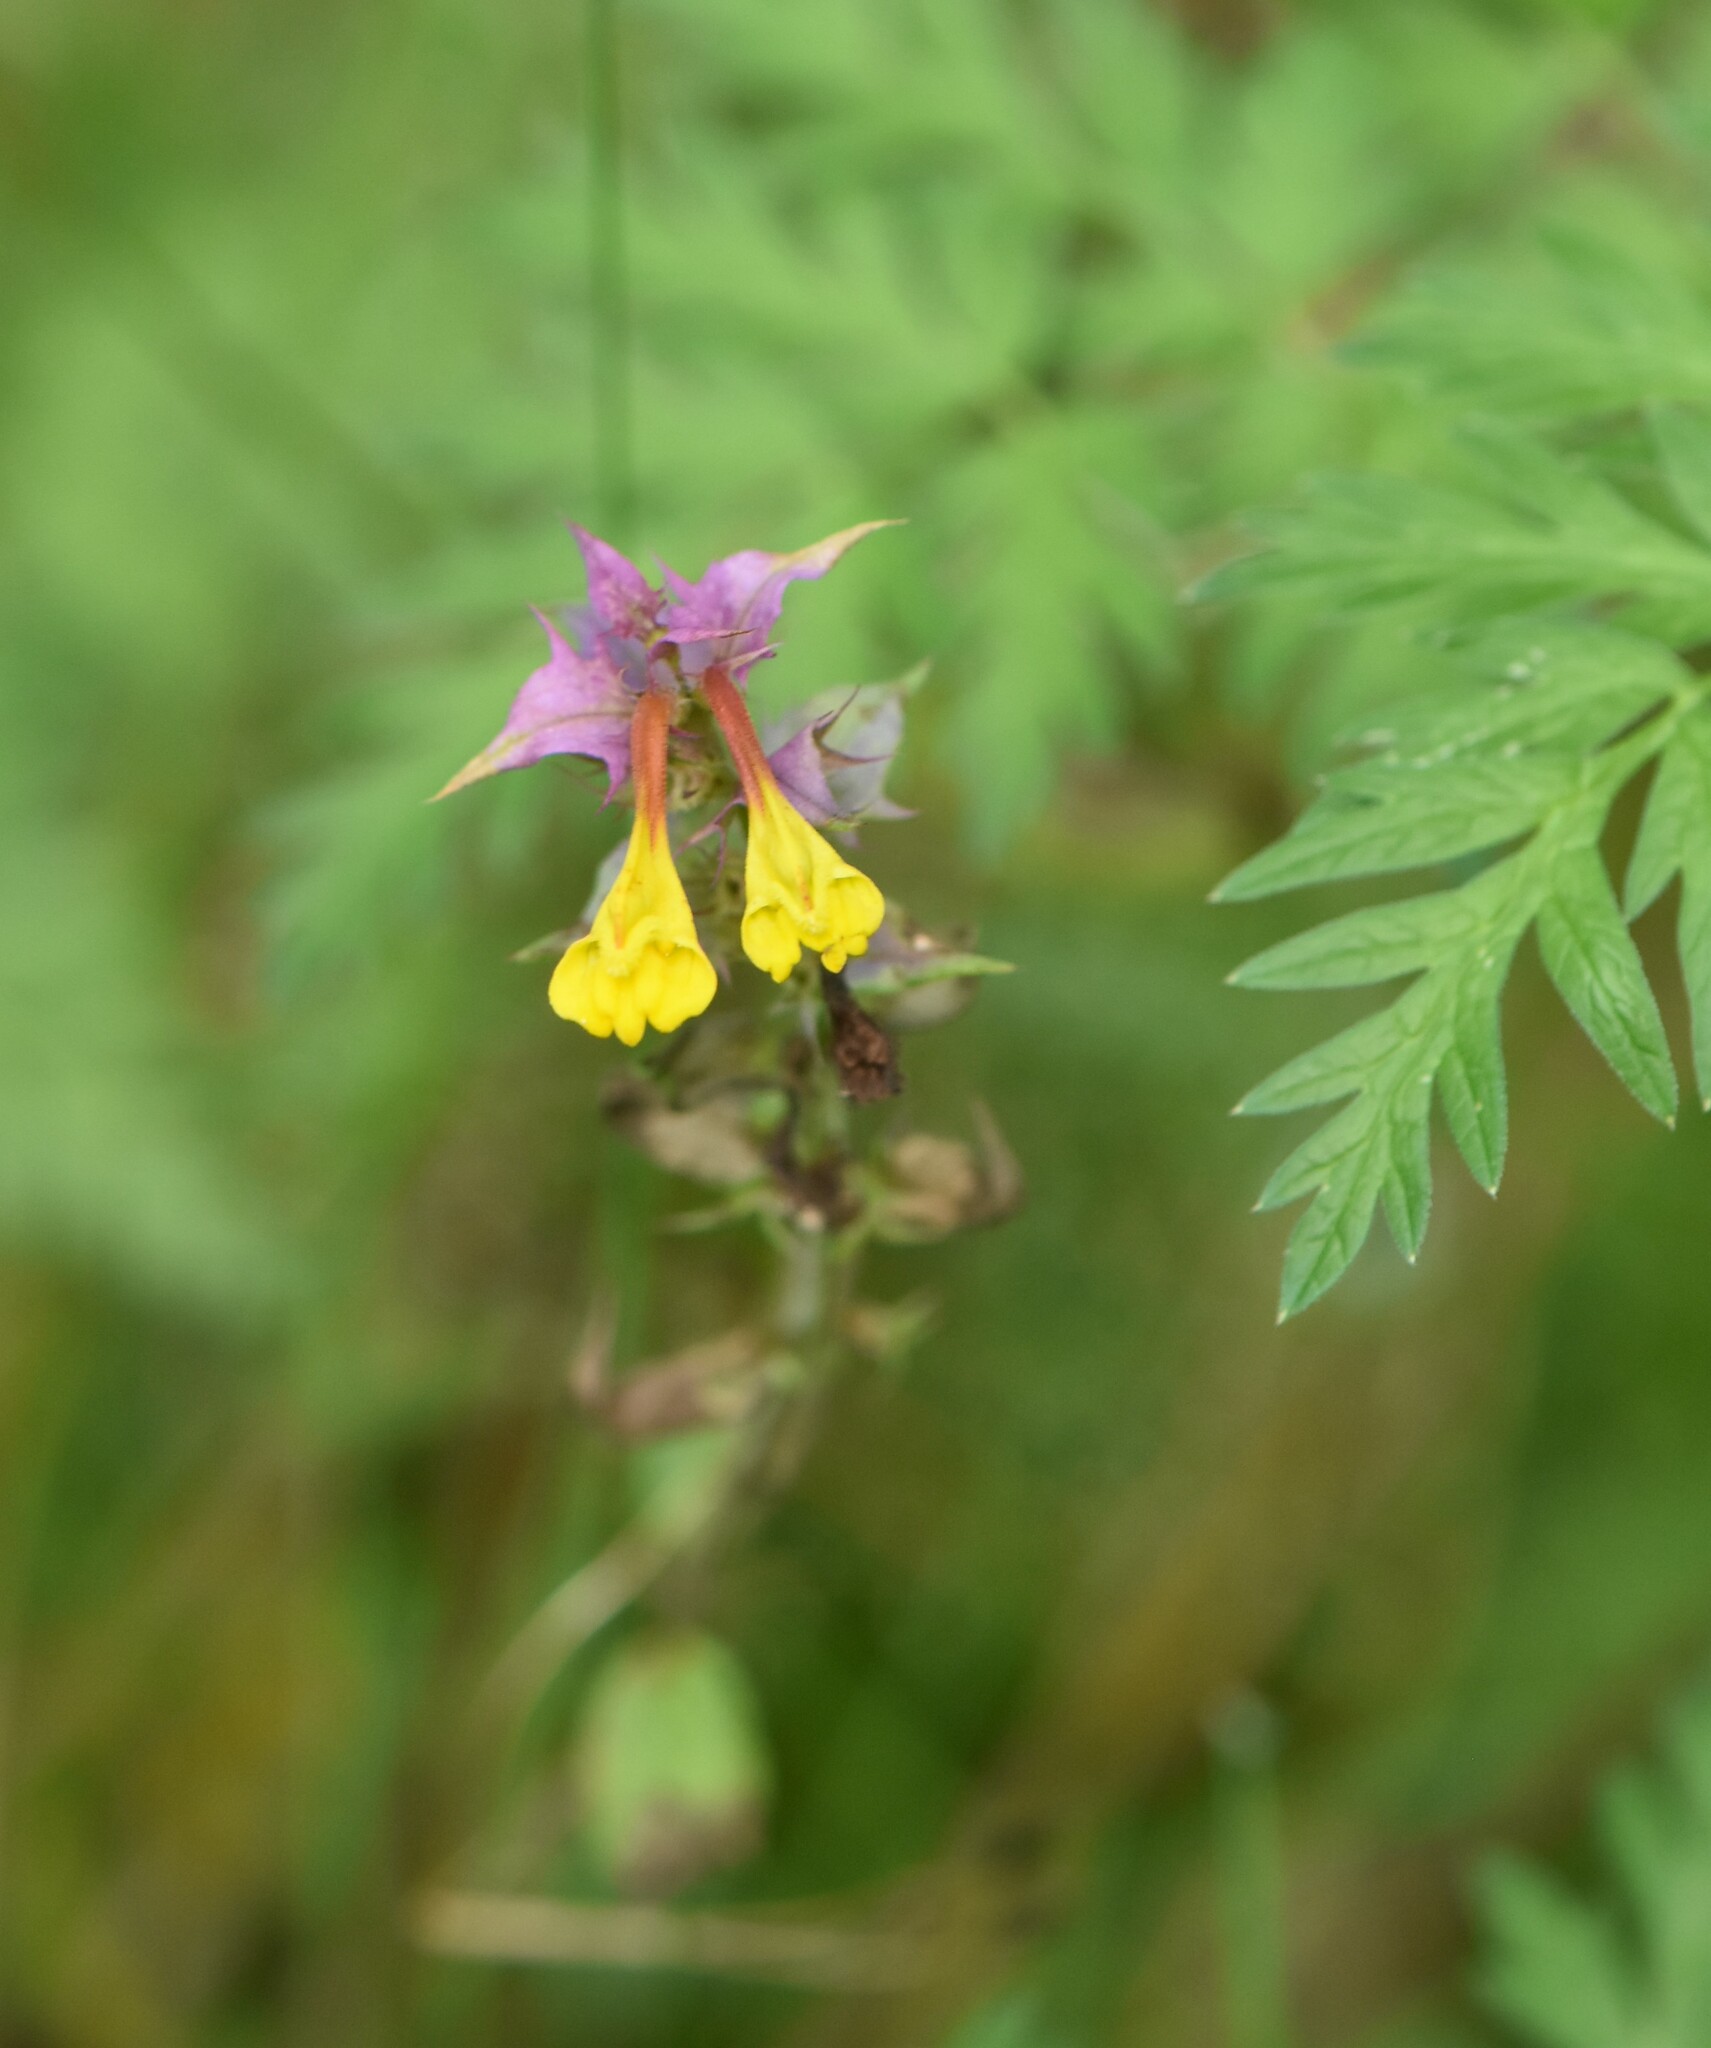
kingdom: Plantae
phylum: Tracheophyta
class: Magnoliopsida
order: Lamiales
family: Orobanchaceae
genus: Melampyrum
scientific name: Melampyrum nemorosum
